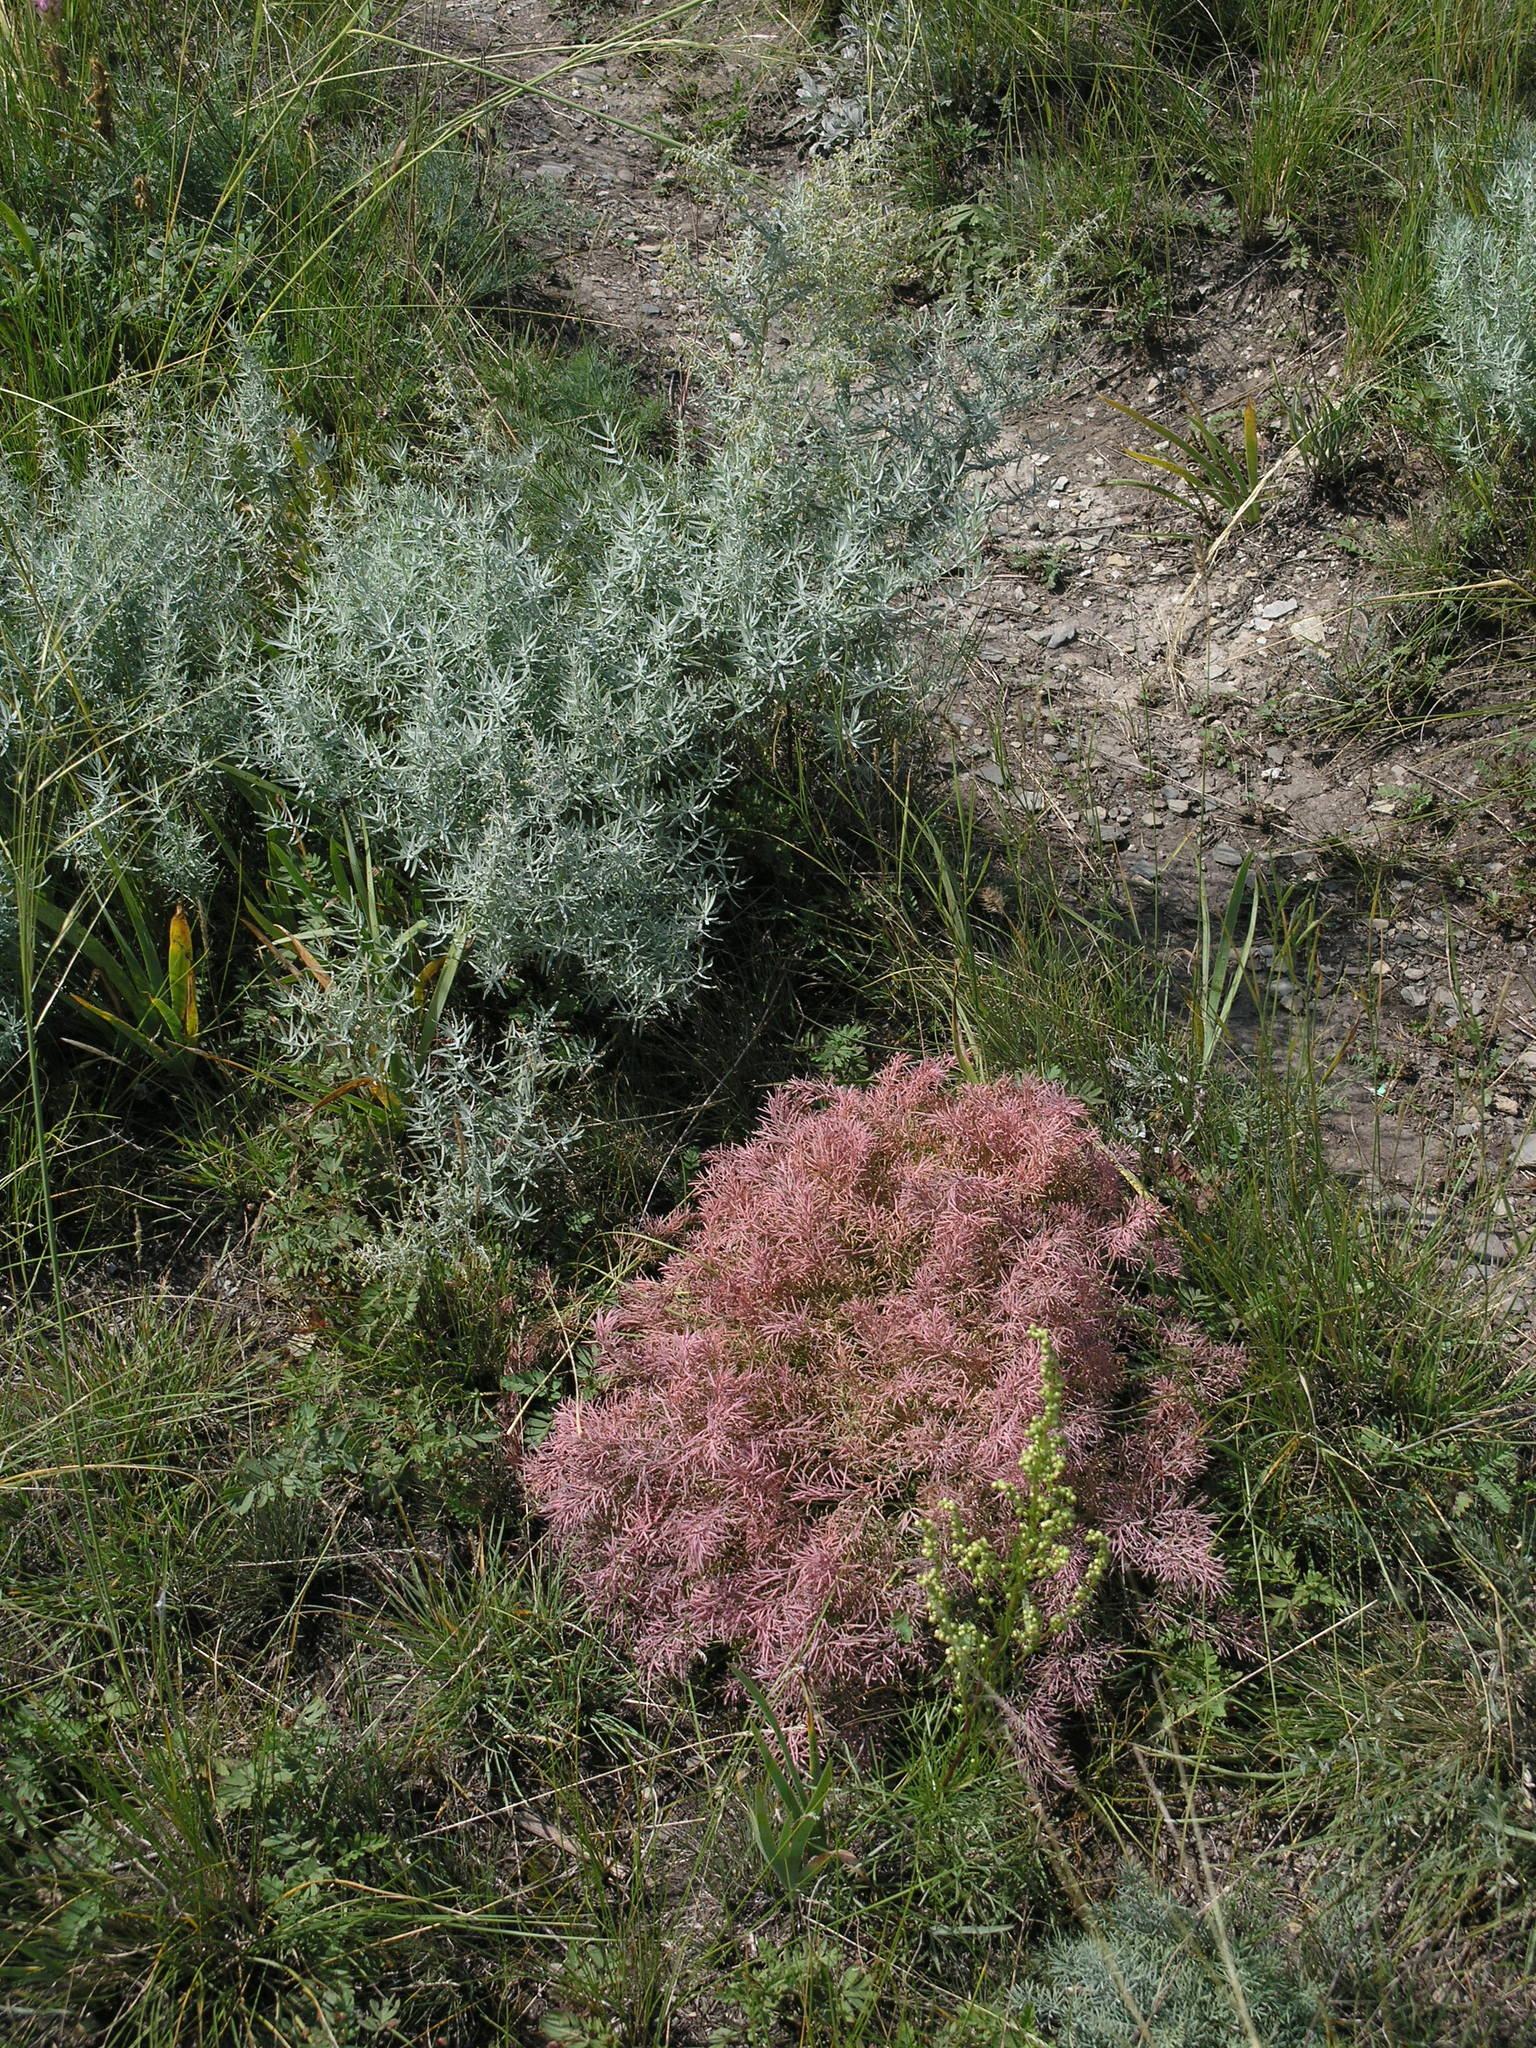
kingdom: Plantae
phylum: Tracheophyta
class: Magnoliopsida
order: Asterales
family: Asteraceae
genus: Artemisia
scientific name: Artemisia glauca
